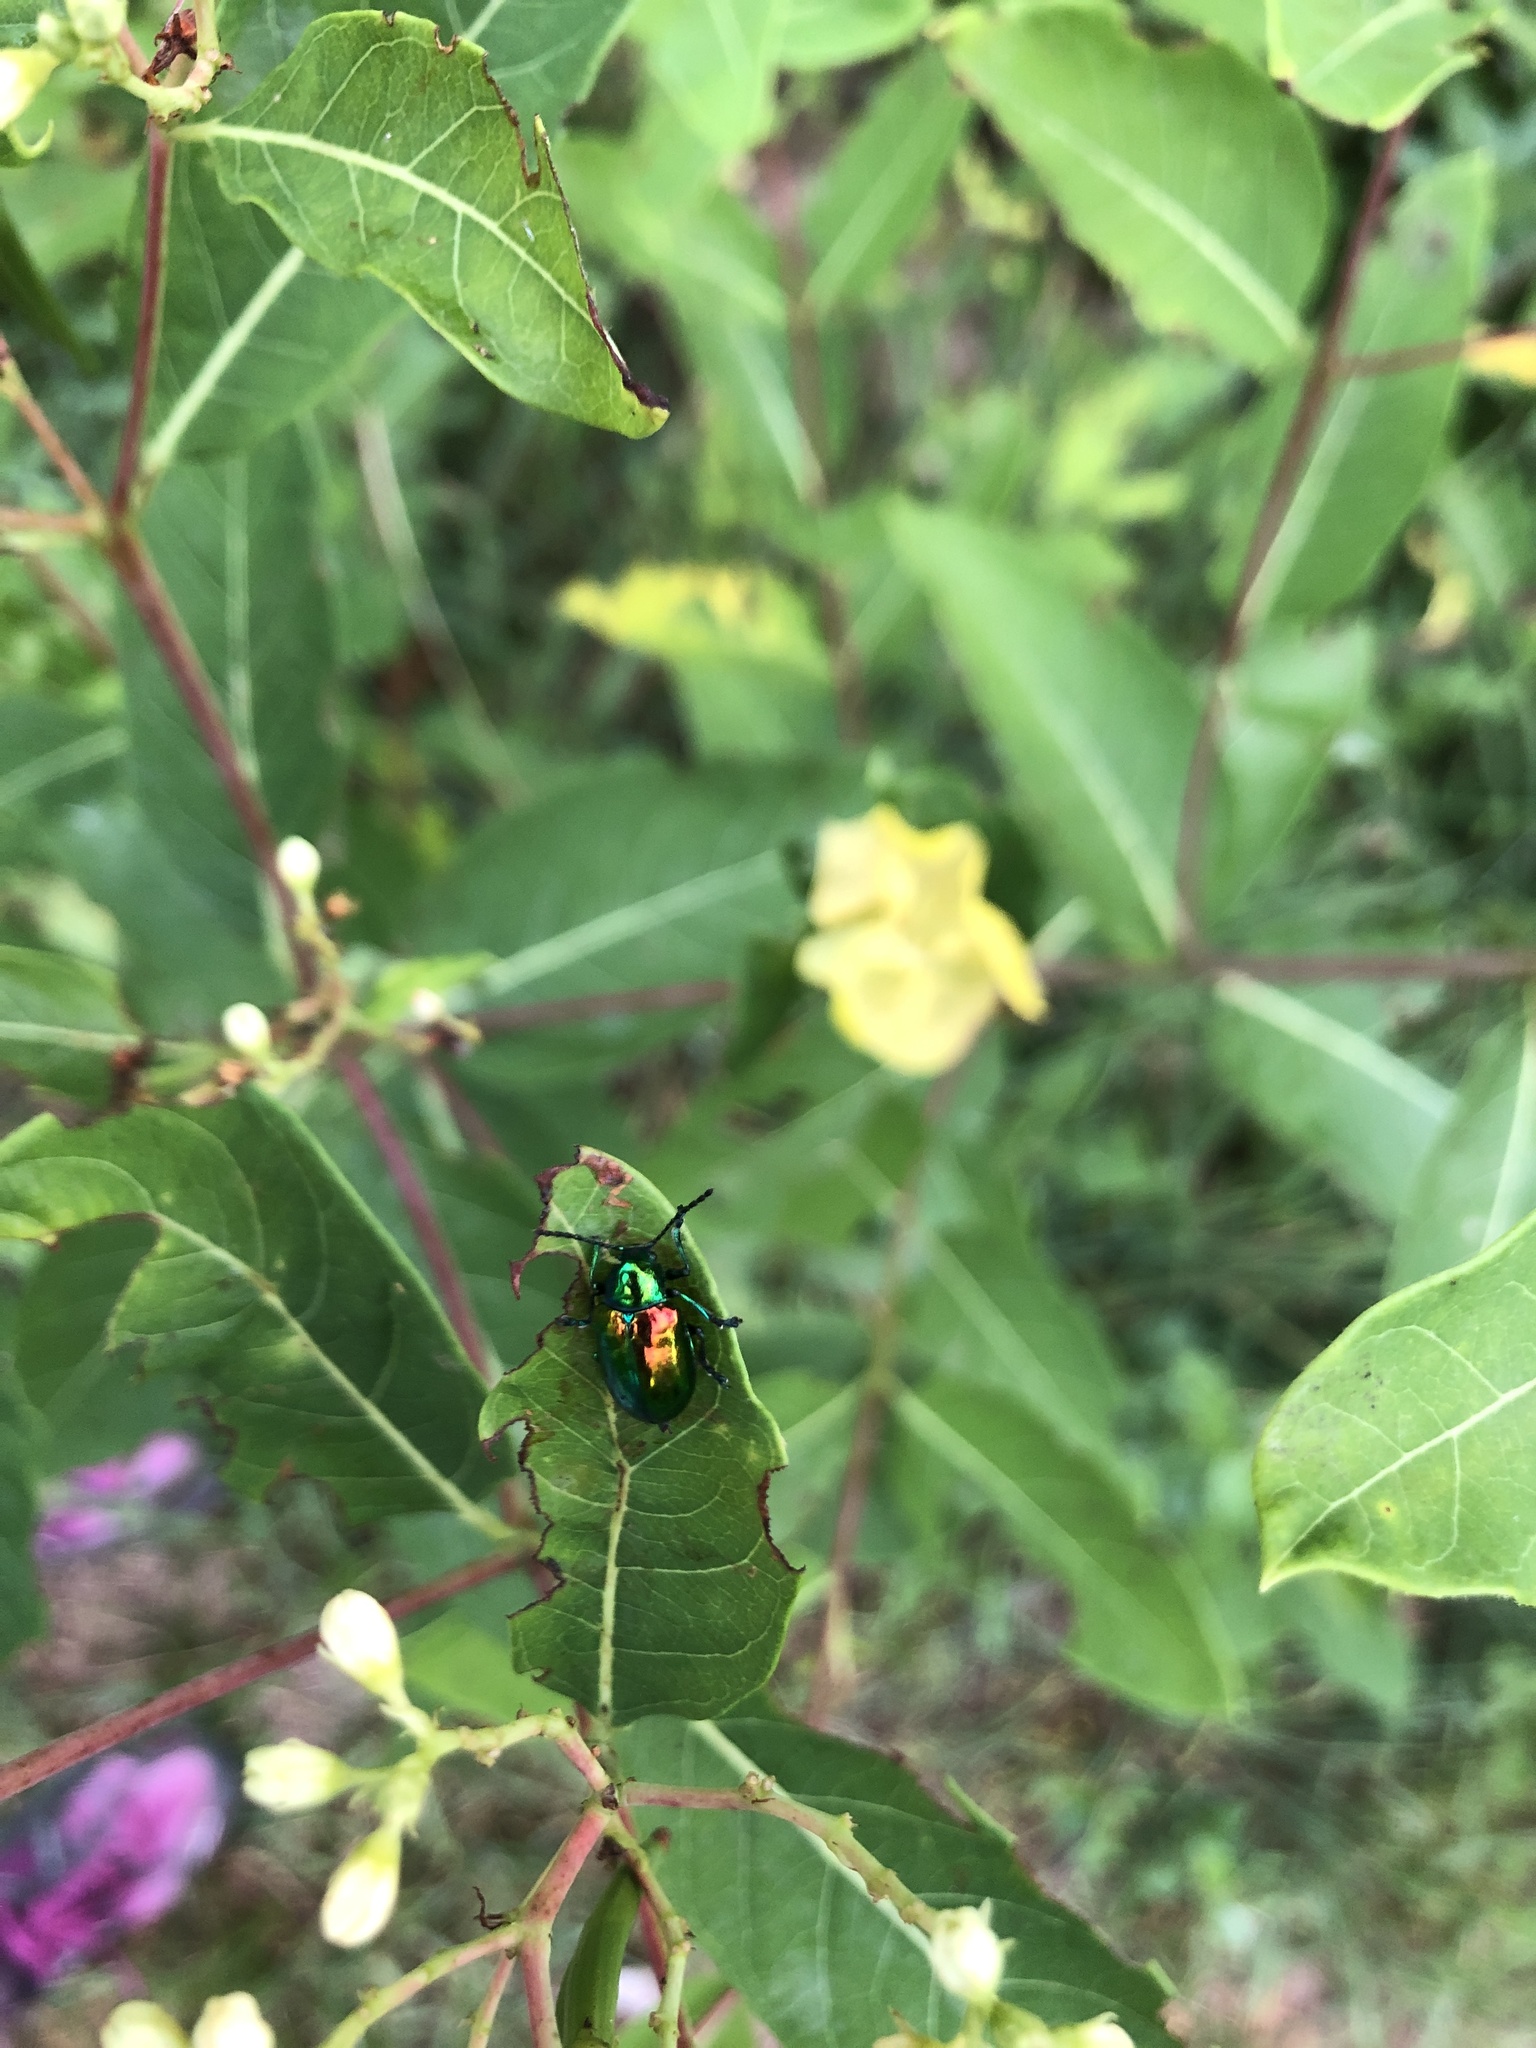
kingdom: Animalia
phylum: Arthropoda
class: Insecta
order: Coleoptera
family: Chrysomelidae
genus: Chrysochus
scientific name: Chrysochus auratus
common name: Dogbane leaf beetle
